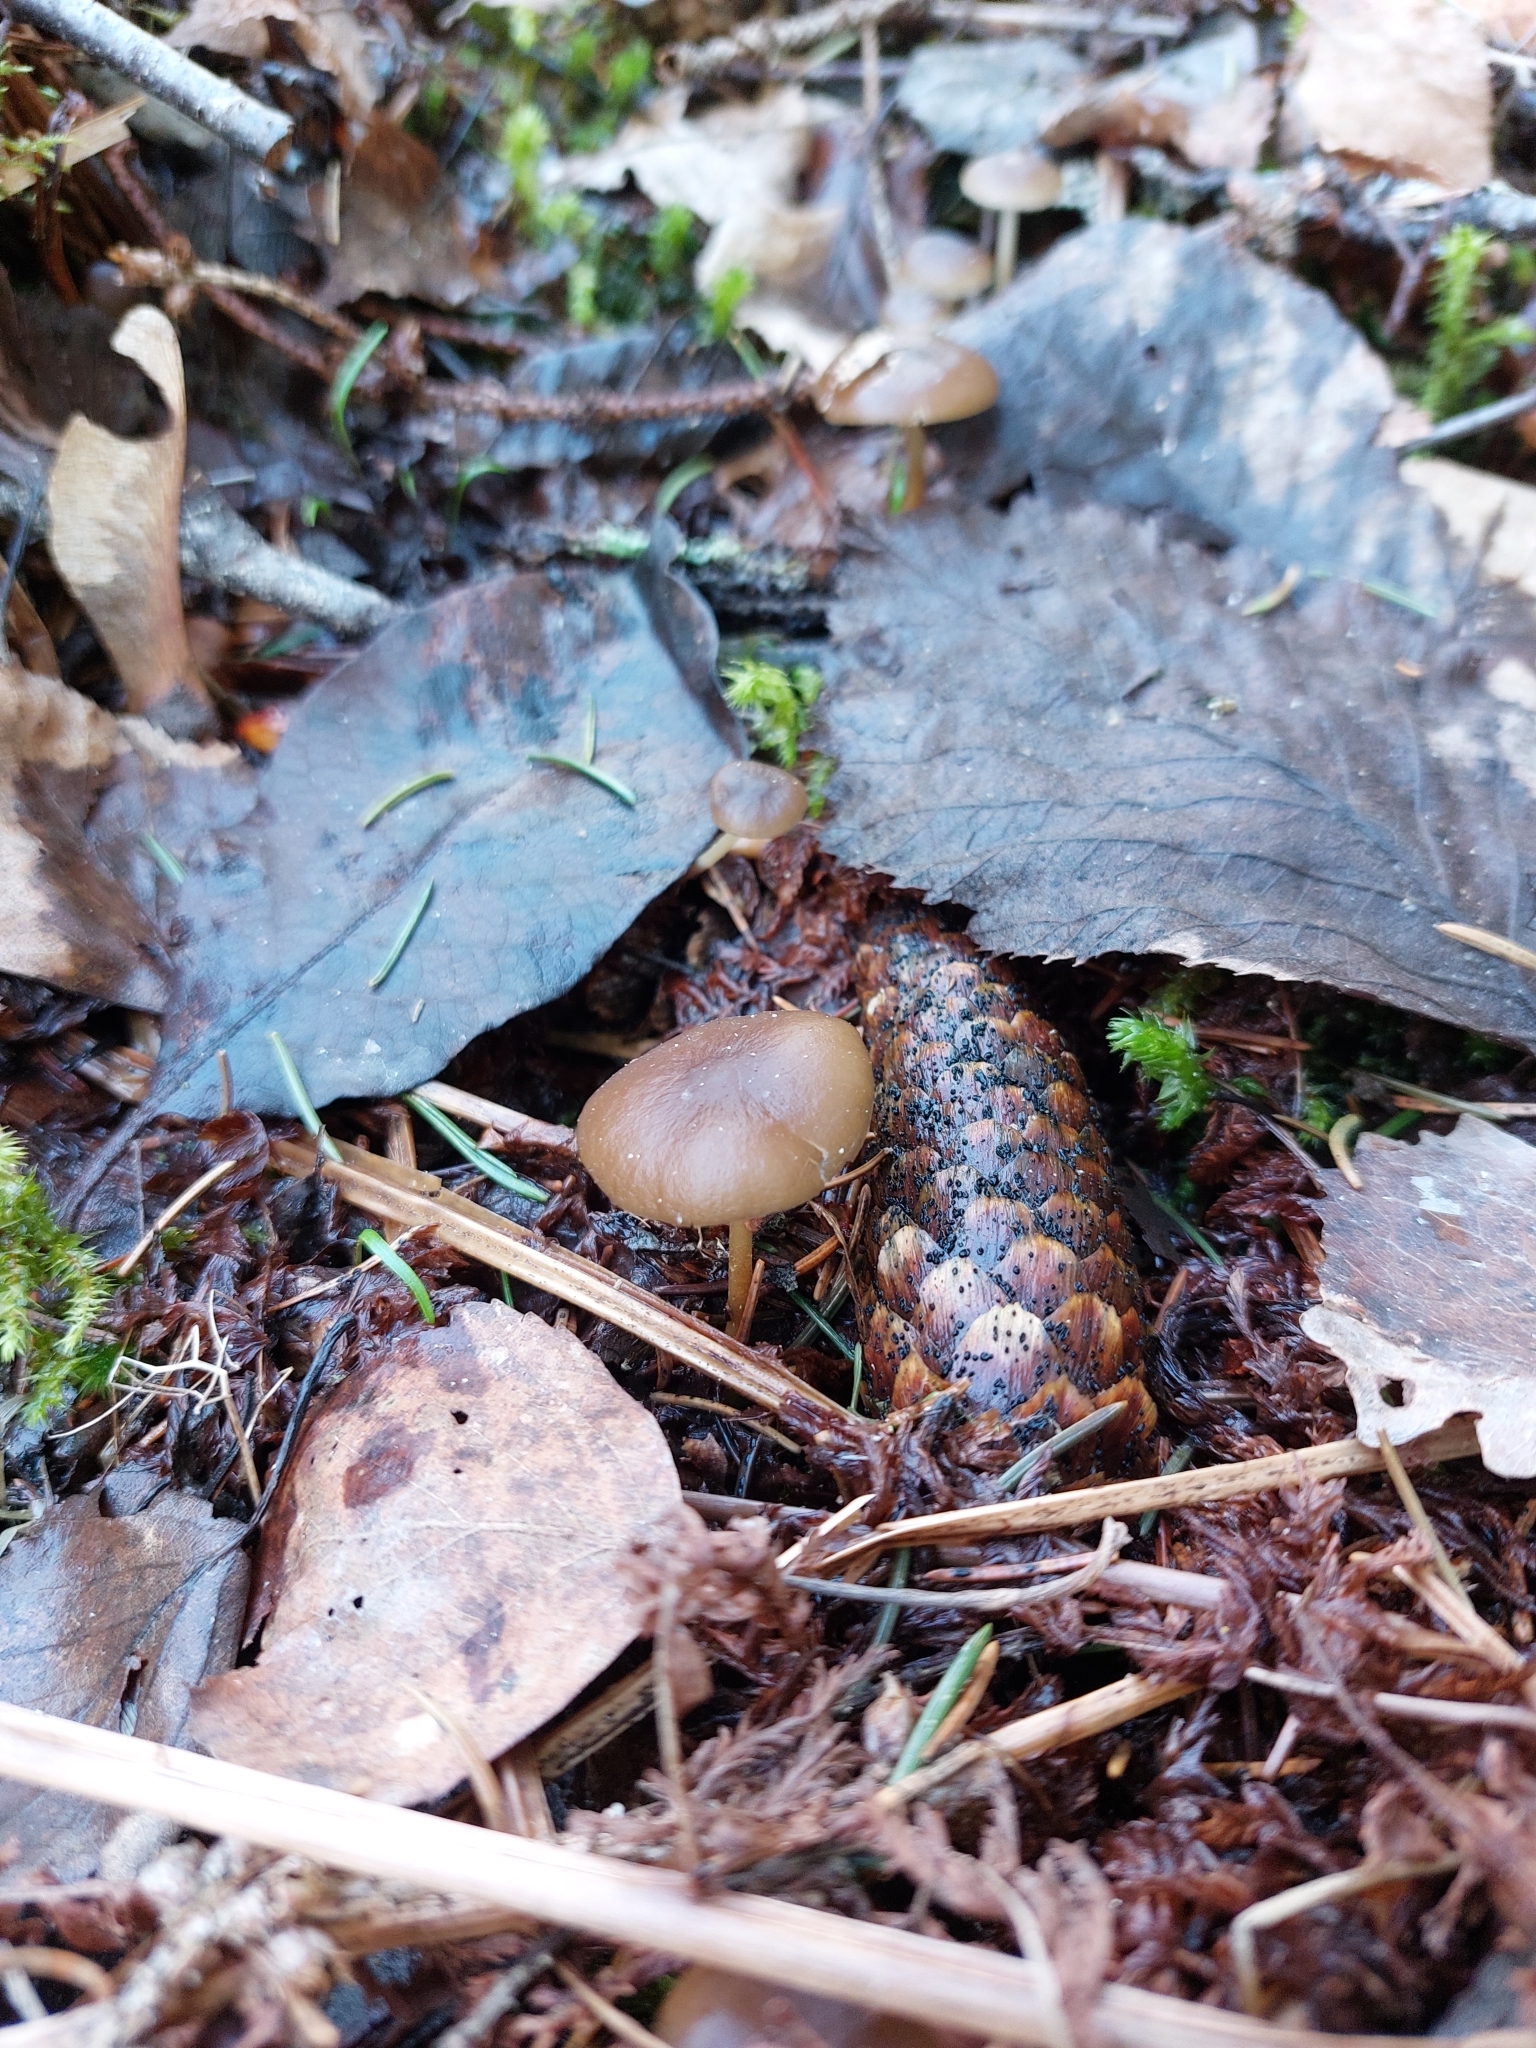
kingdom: Fungi
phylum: Basidiomycota
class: Agaricomycetes
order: Agaricales
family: Physalacriaceae
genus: Strobilurus
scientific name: Strobilurus esculentus
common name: Sprucecone cap
